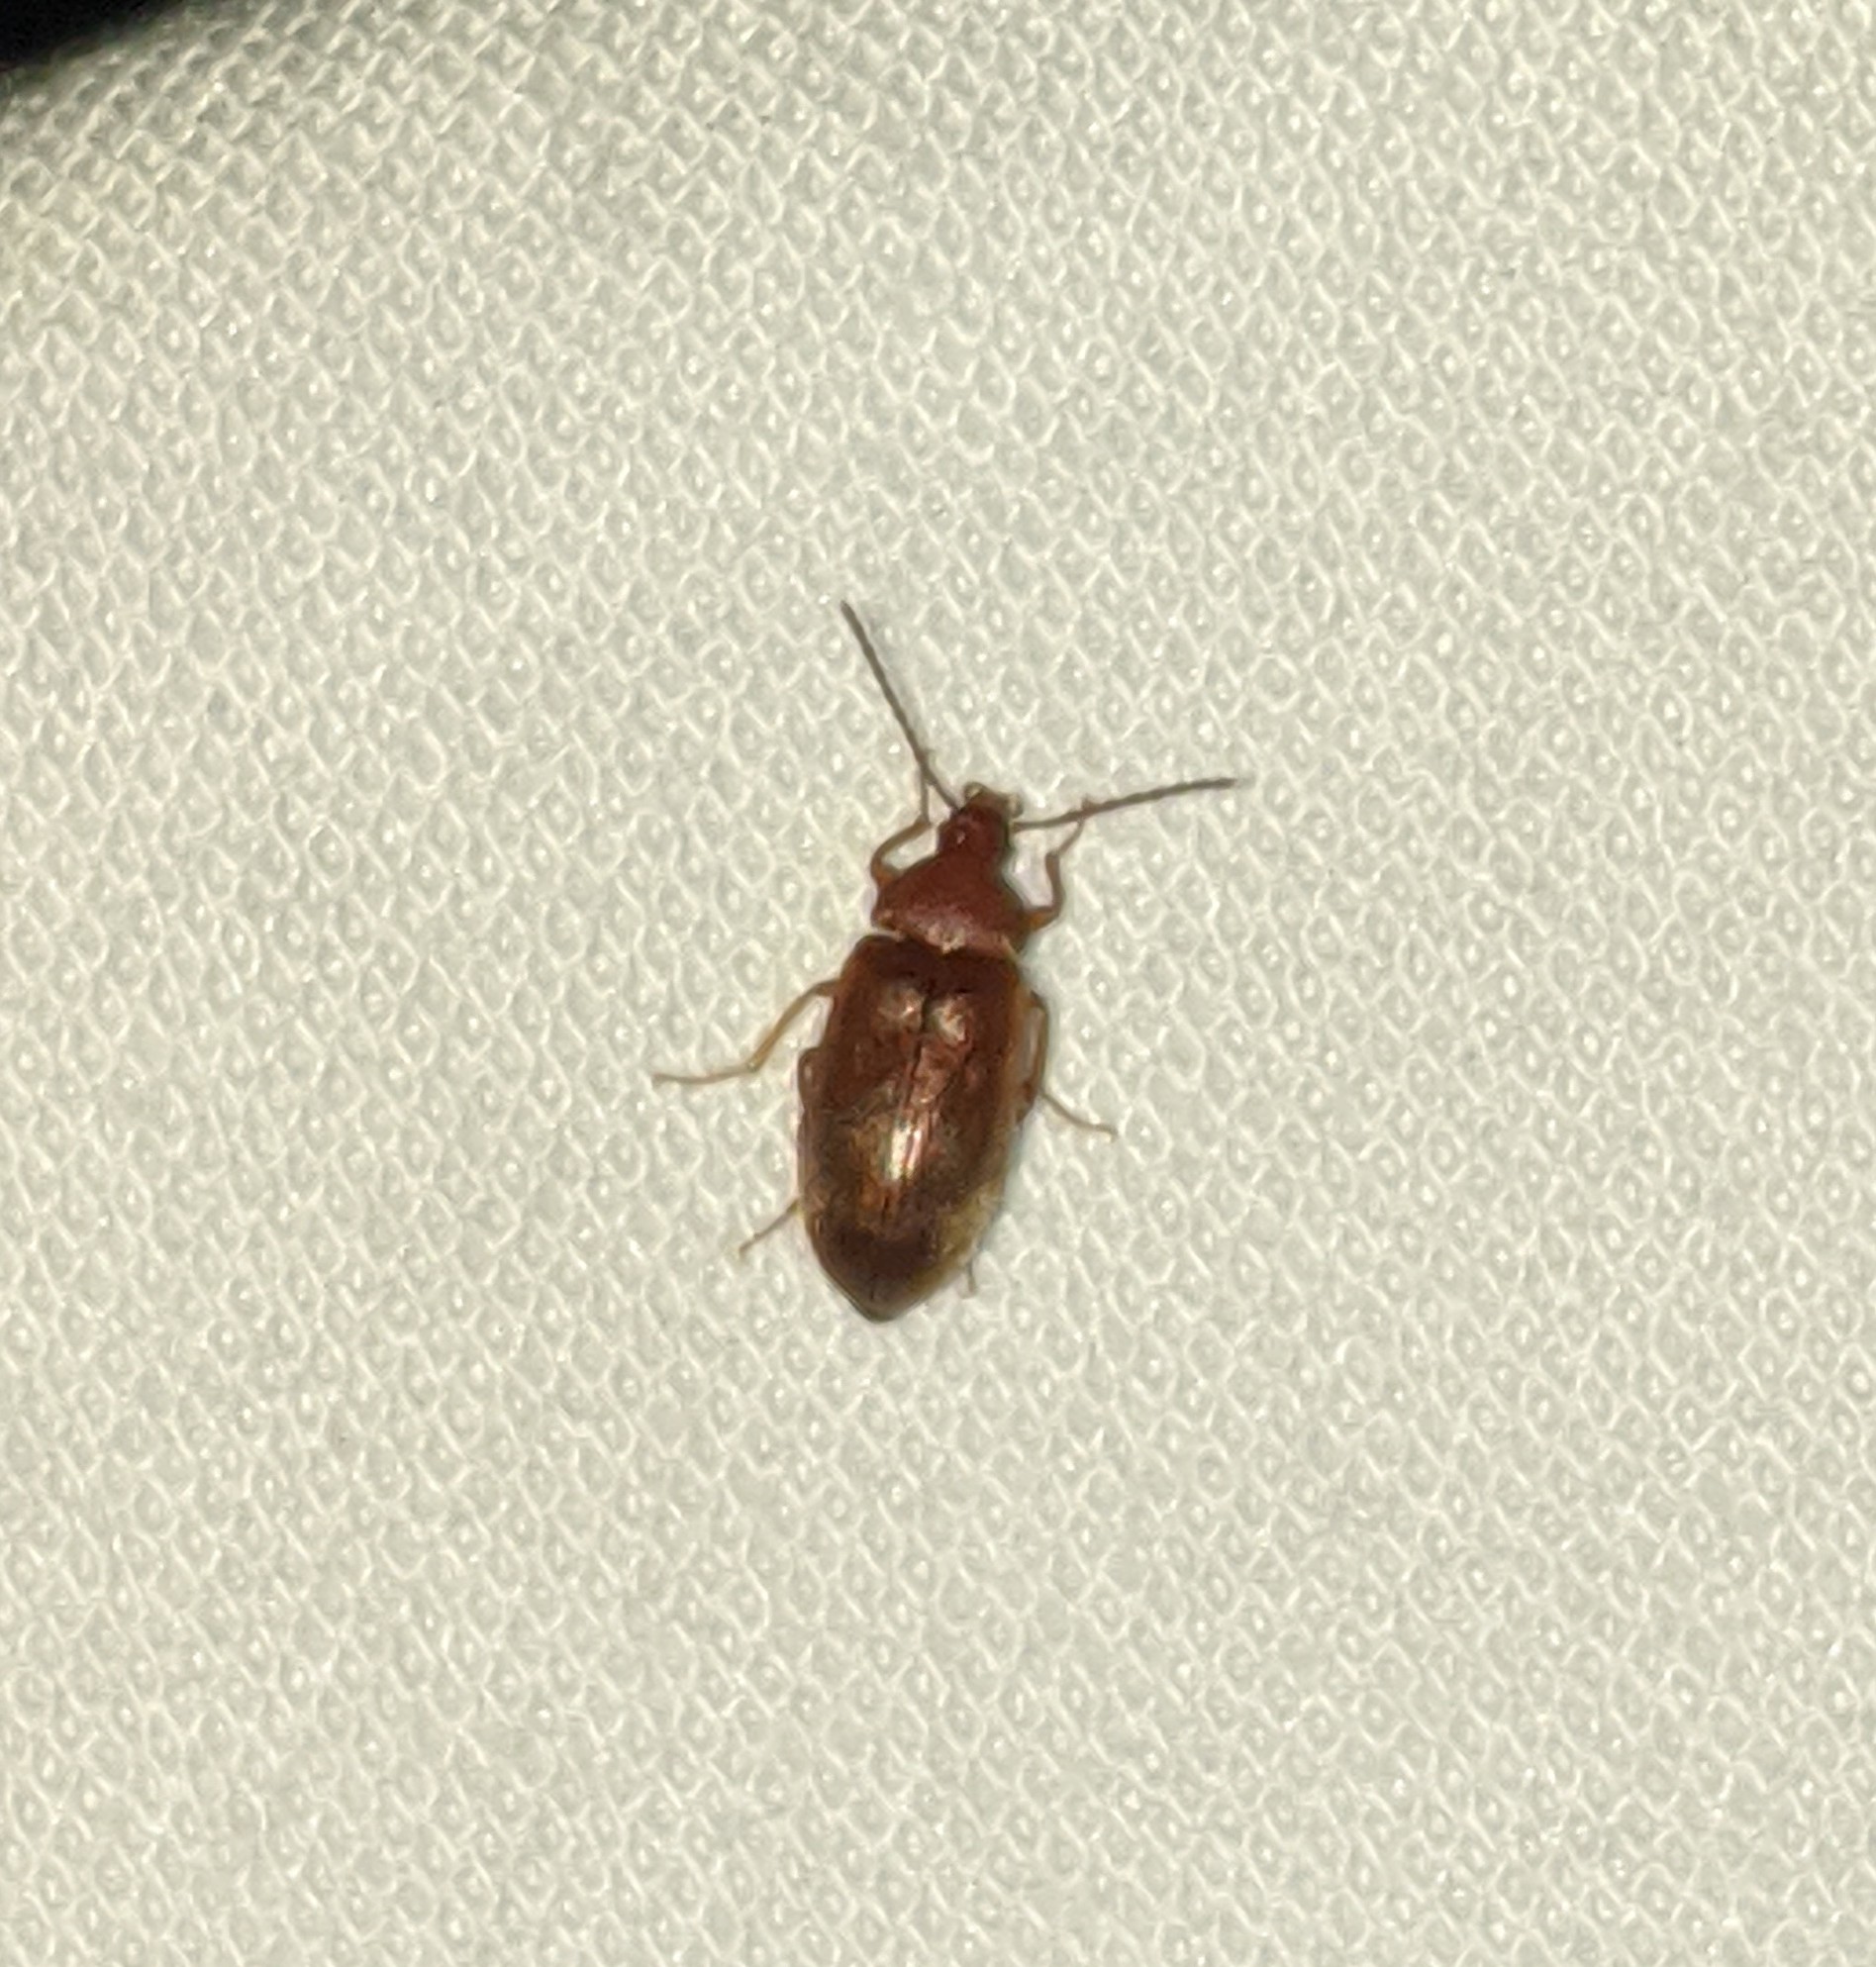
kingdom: Animalia
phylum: Arthropoda
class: Insecta
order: Coleoptera
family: Tenebrionidae
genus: Isomira
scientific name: Isomira comstocki
